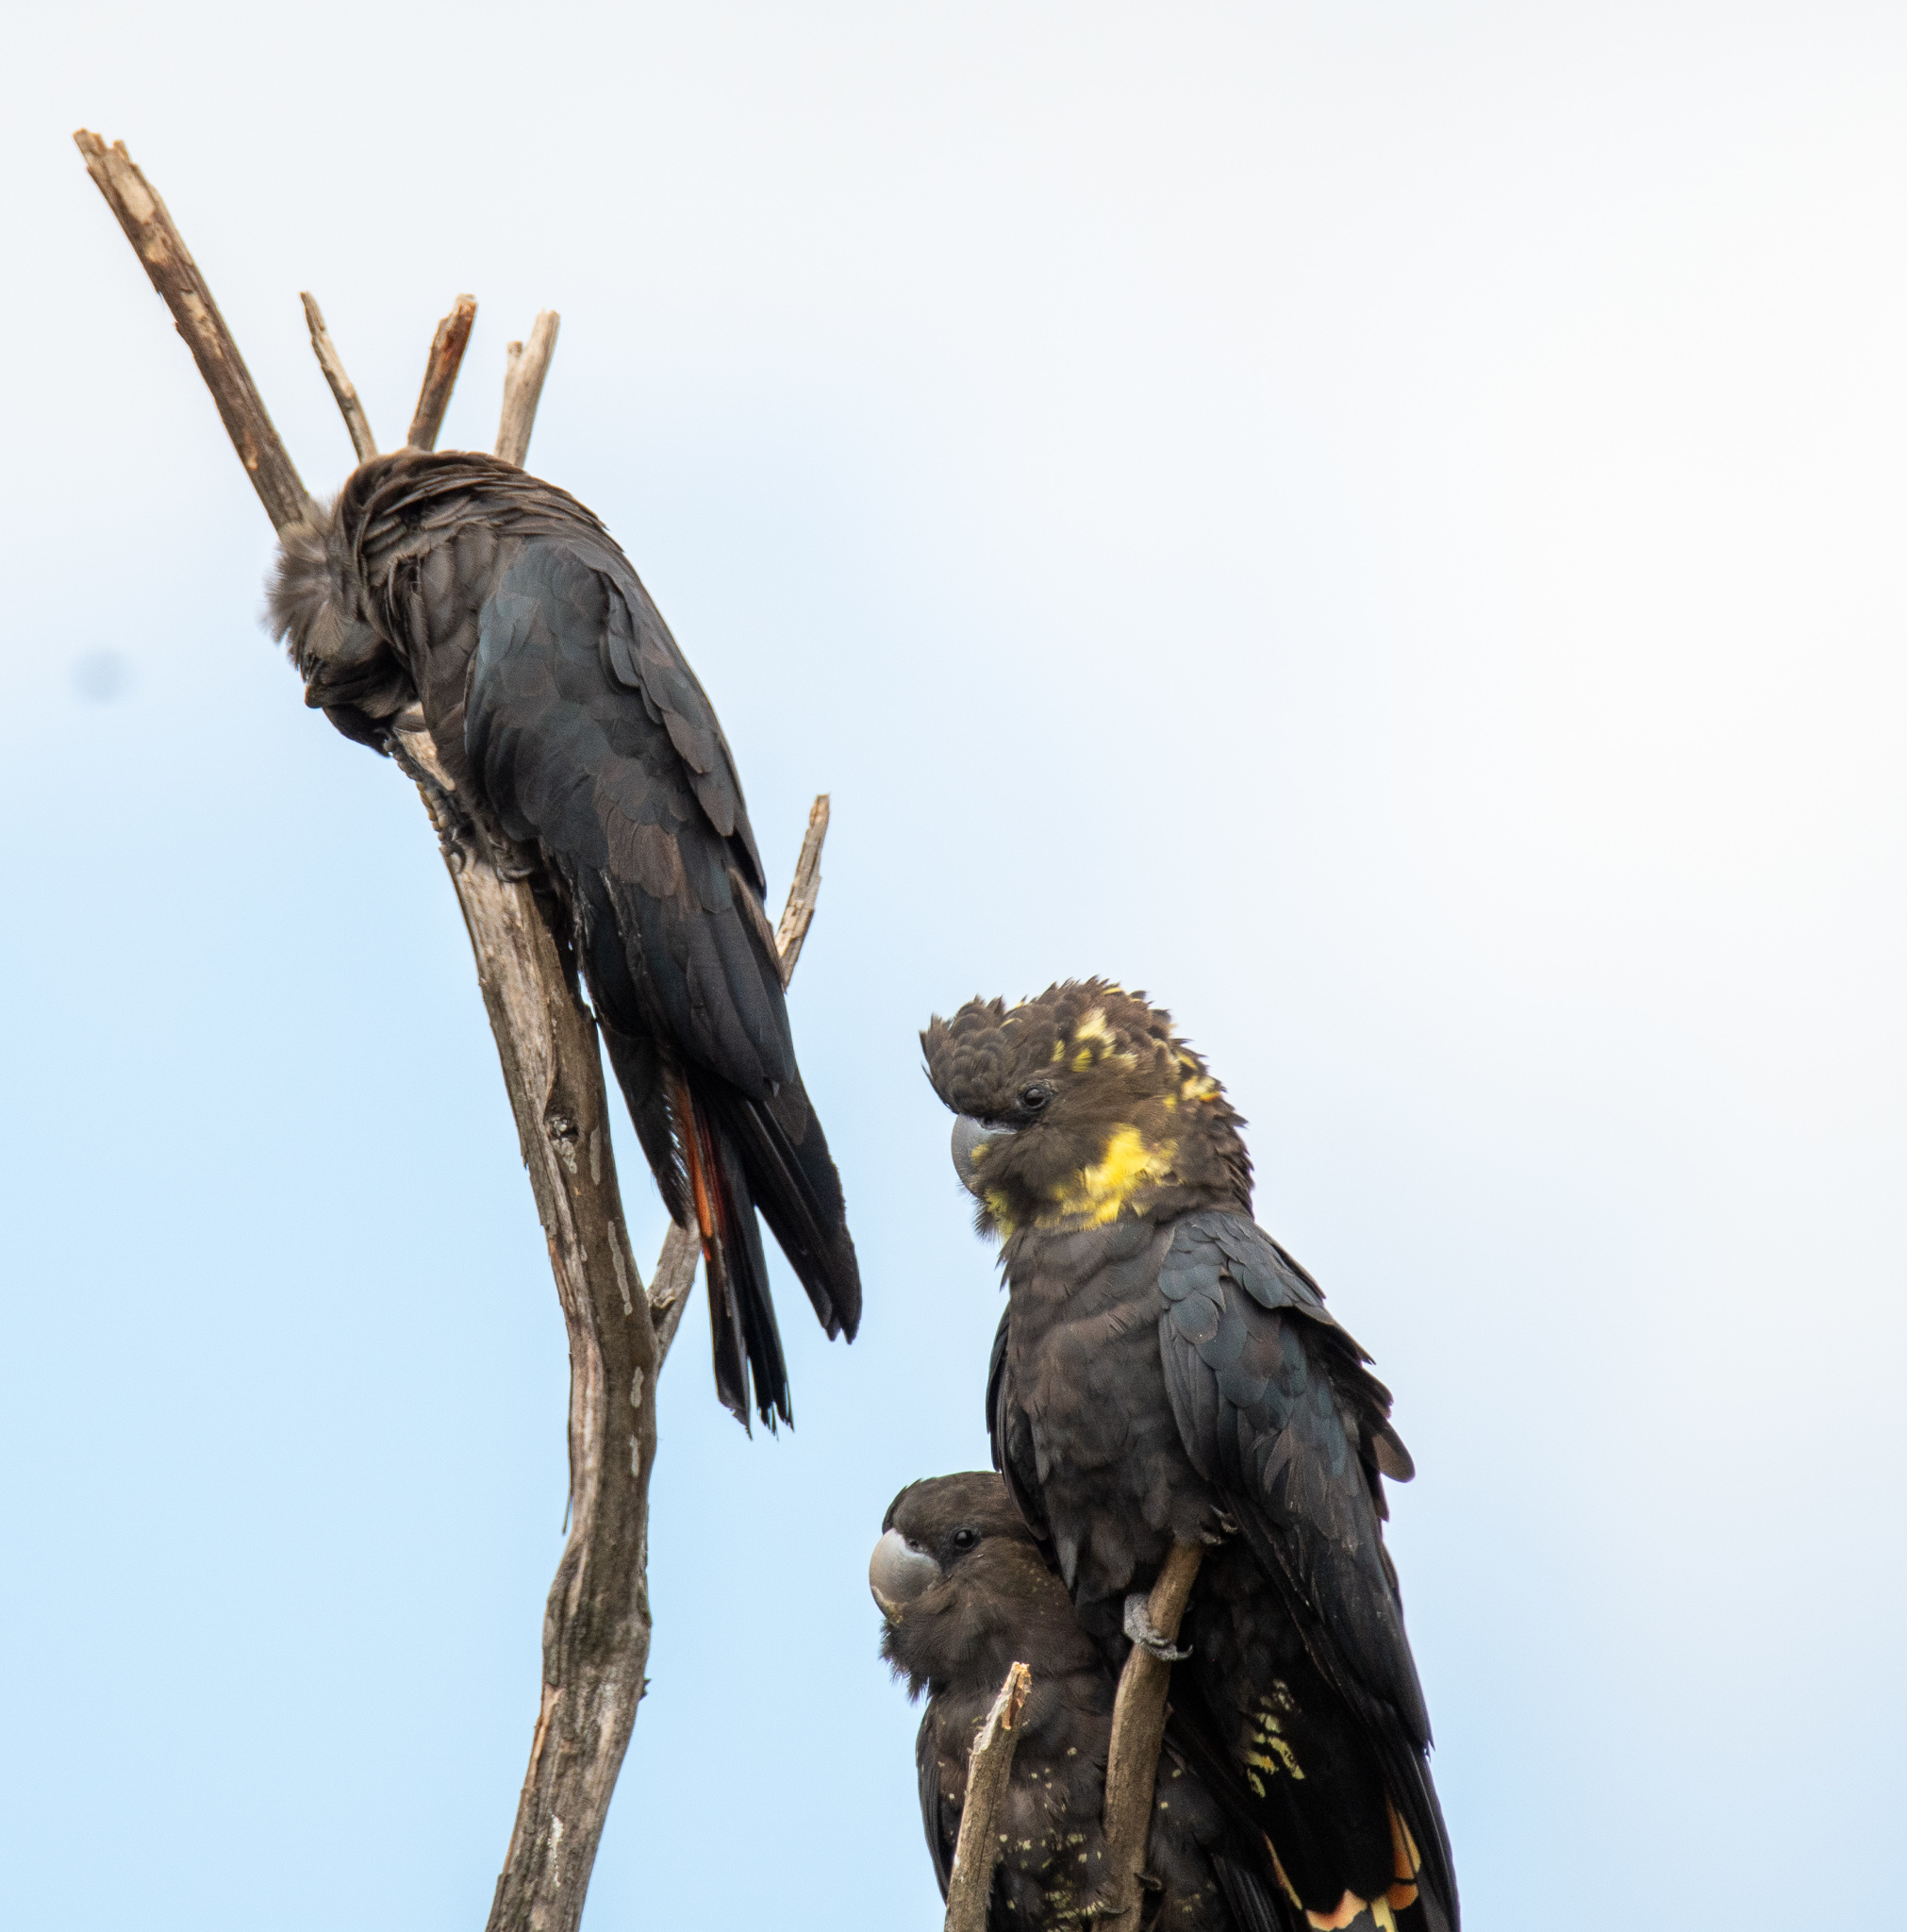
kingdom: Animalia
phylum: Chordata
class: Aves
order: Psittaciformes
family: Psittacidae
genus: Calyptorhynchus
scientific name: Calyptorhynchus lathami
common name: Glossy black cockatoo
